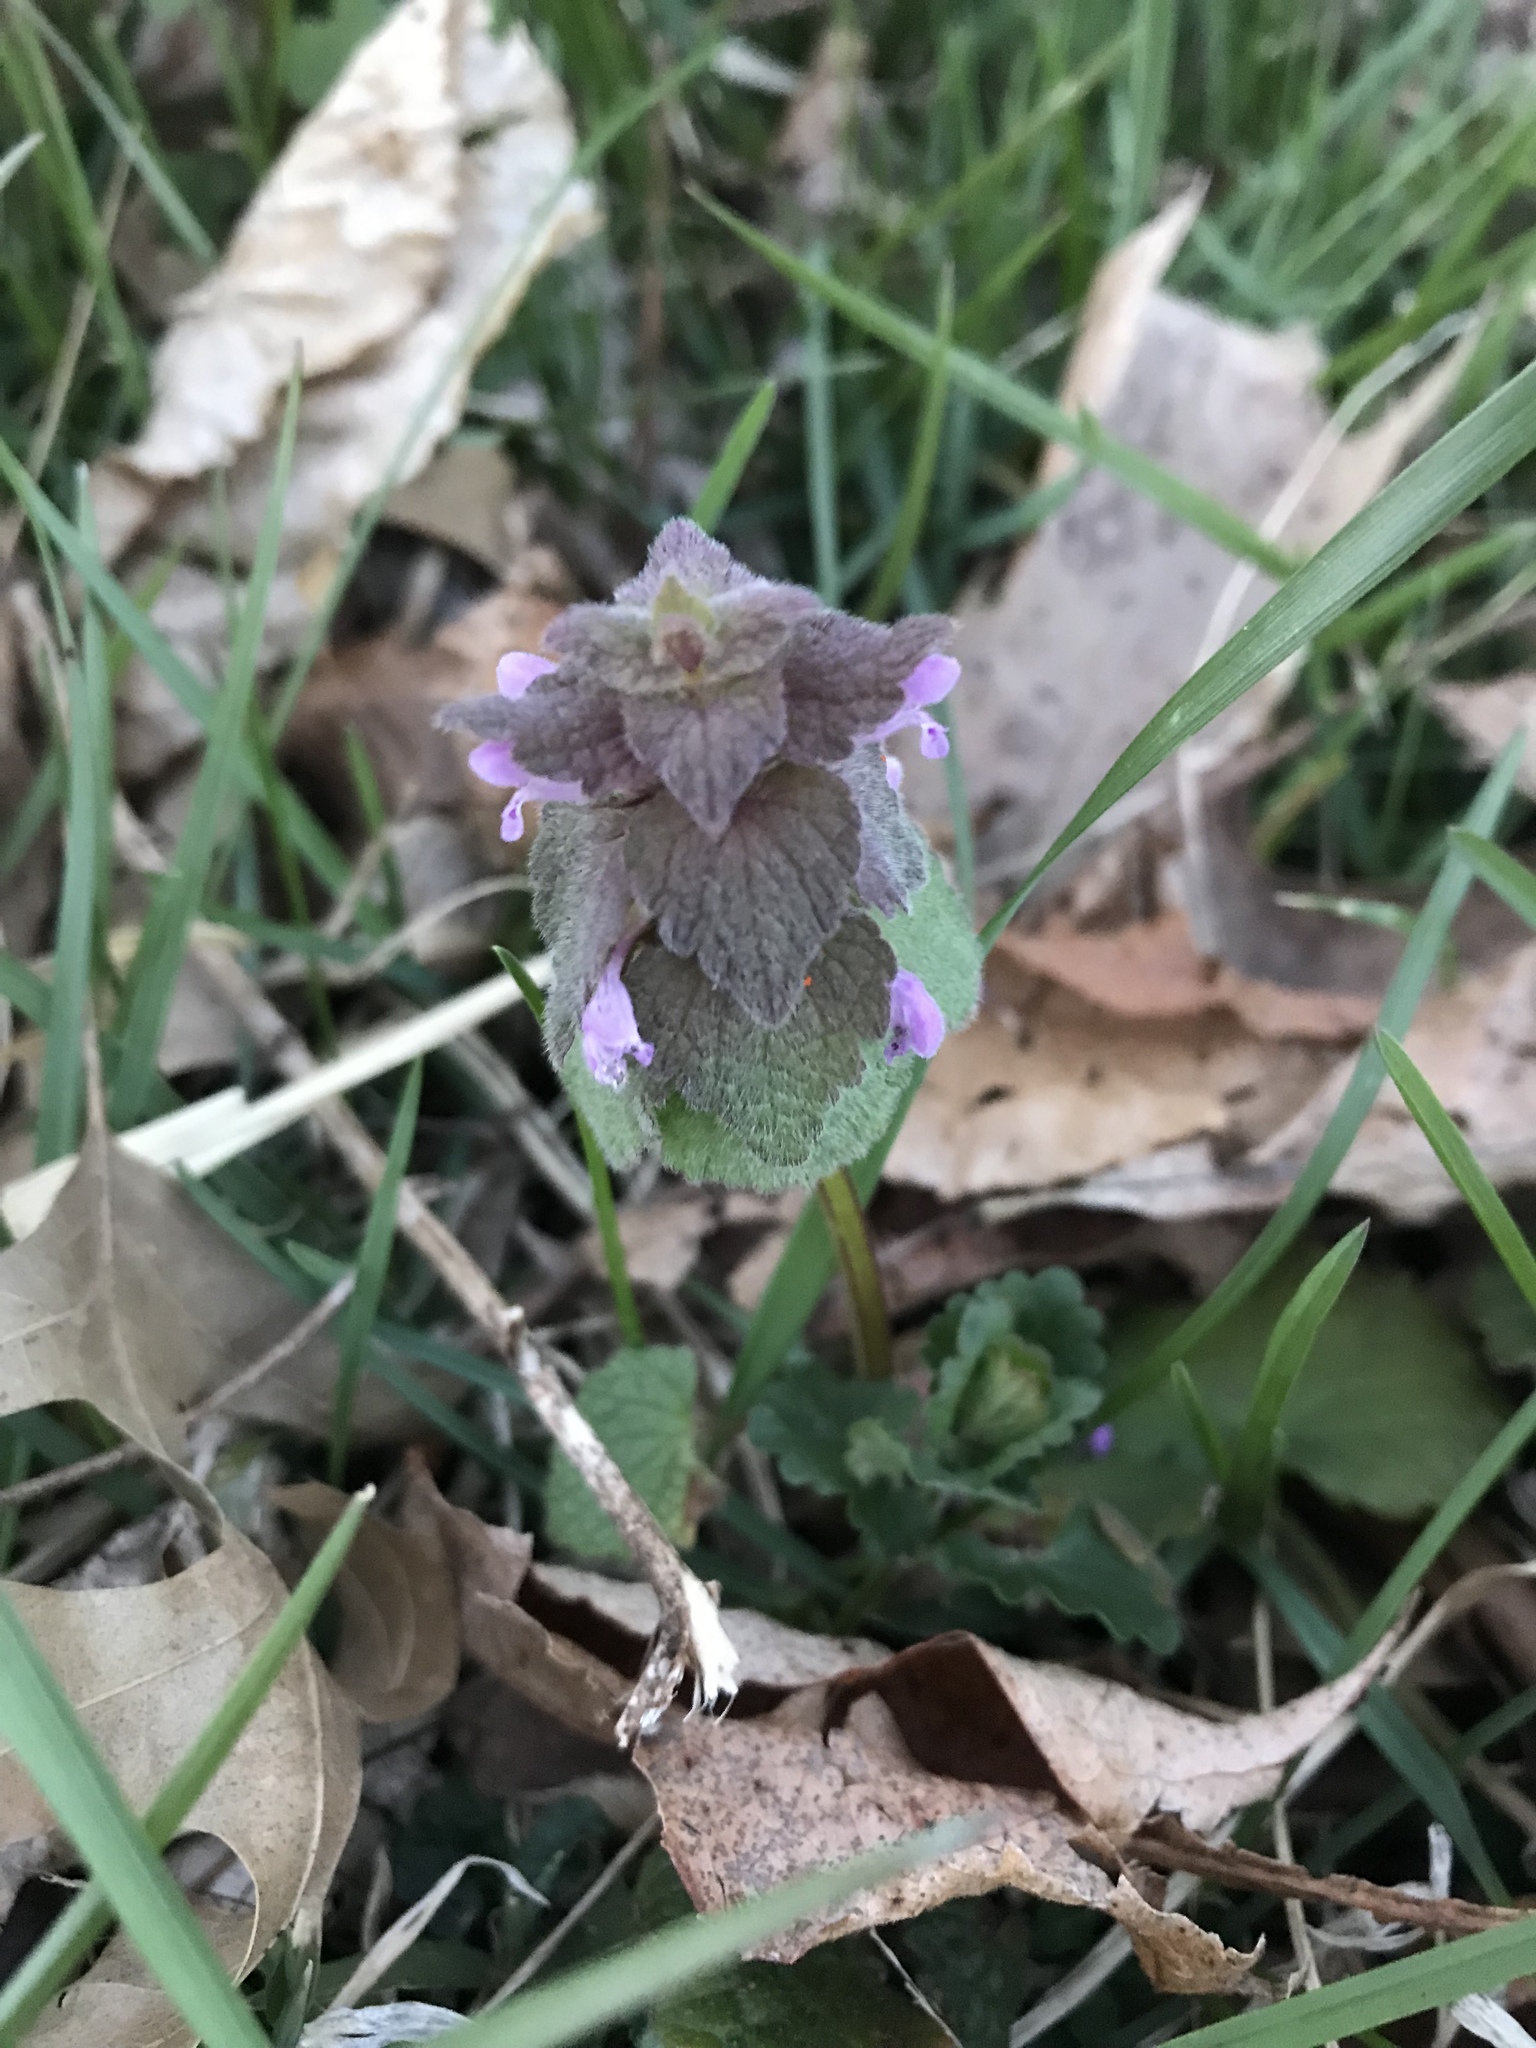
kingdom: Plantae
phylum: Tracheophyta
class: Magnoliopsida
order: Lamiales
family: Lamiaceae
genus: Lamium
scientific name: Lamium purpureum
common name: Red dead-nettle
